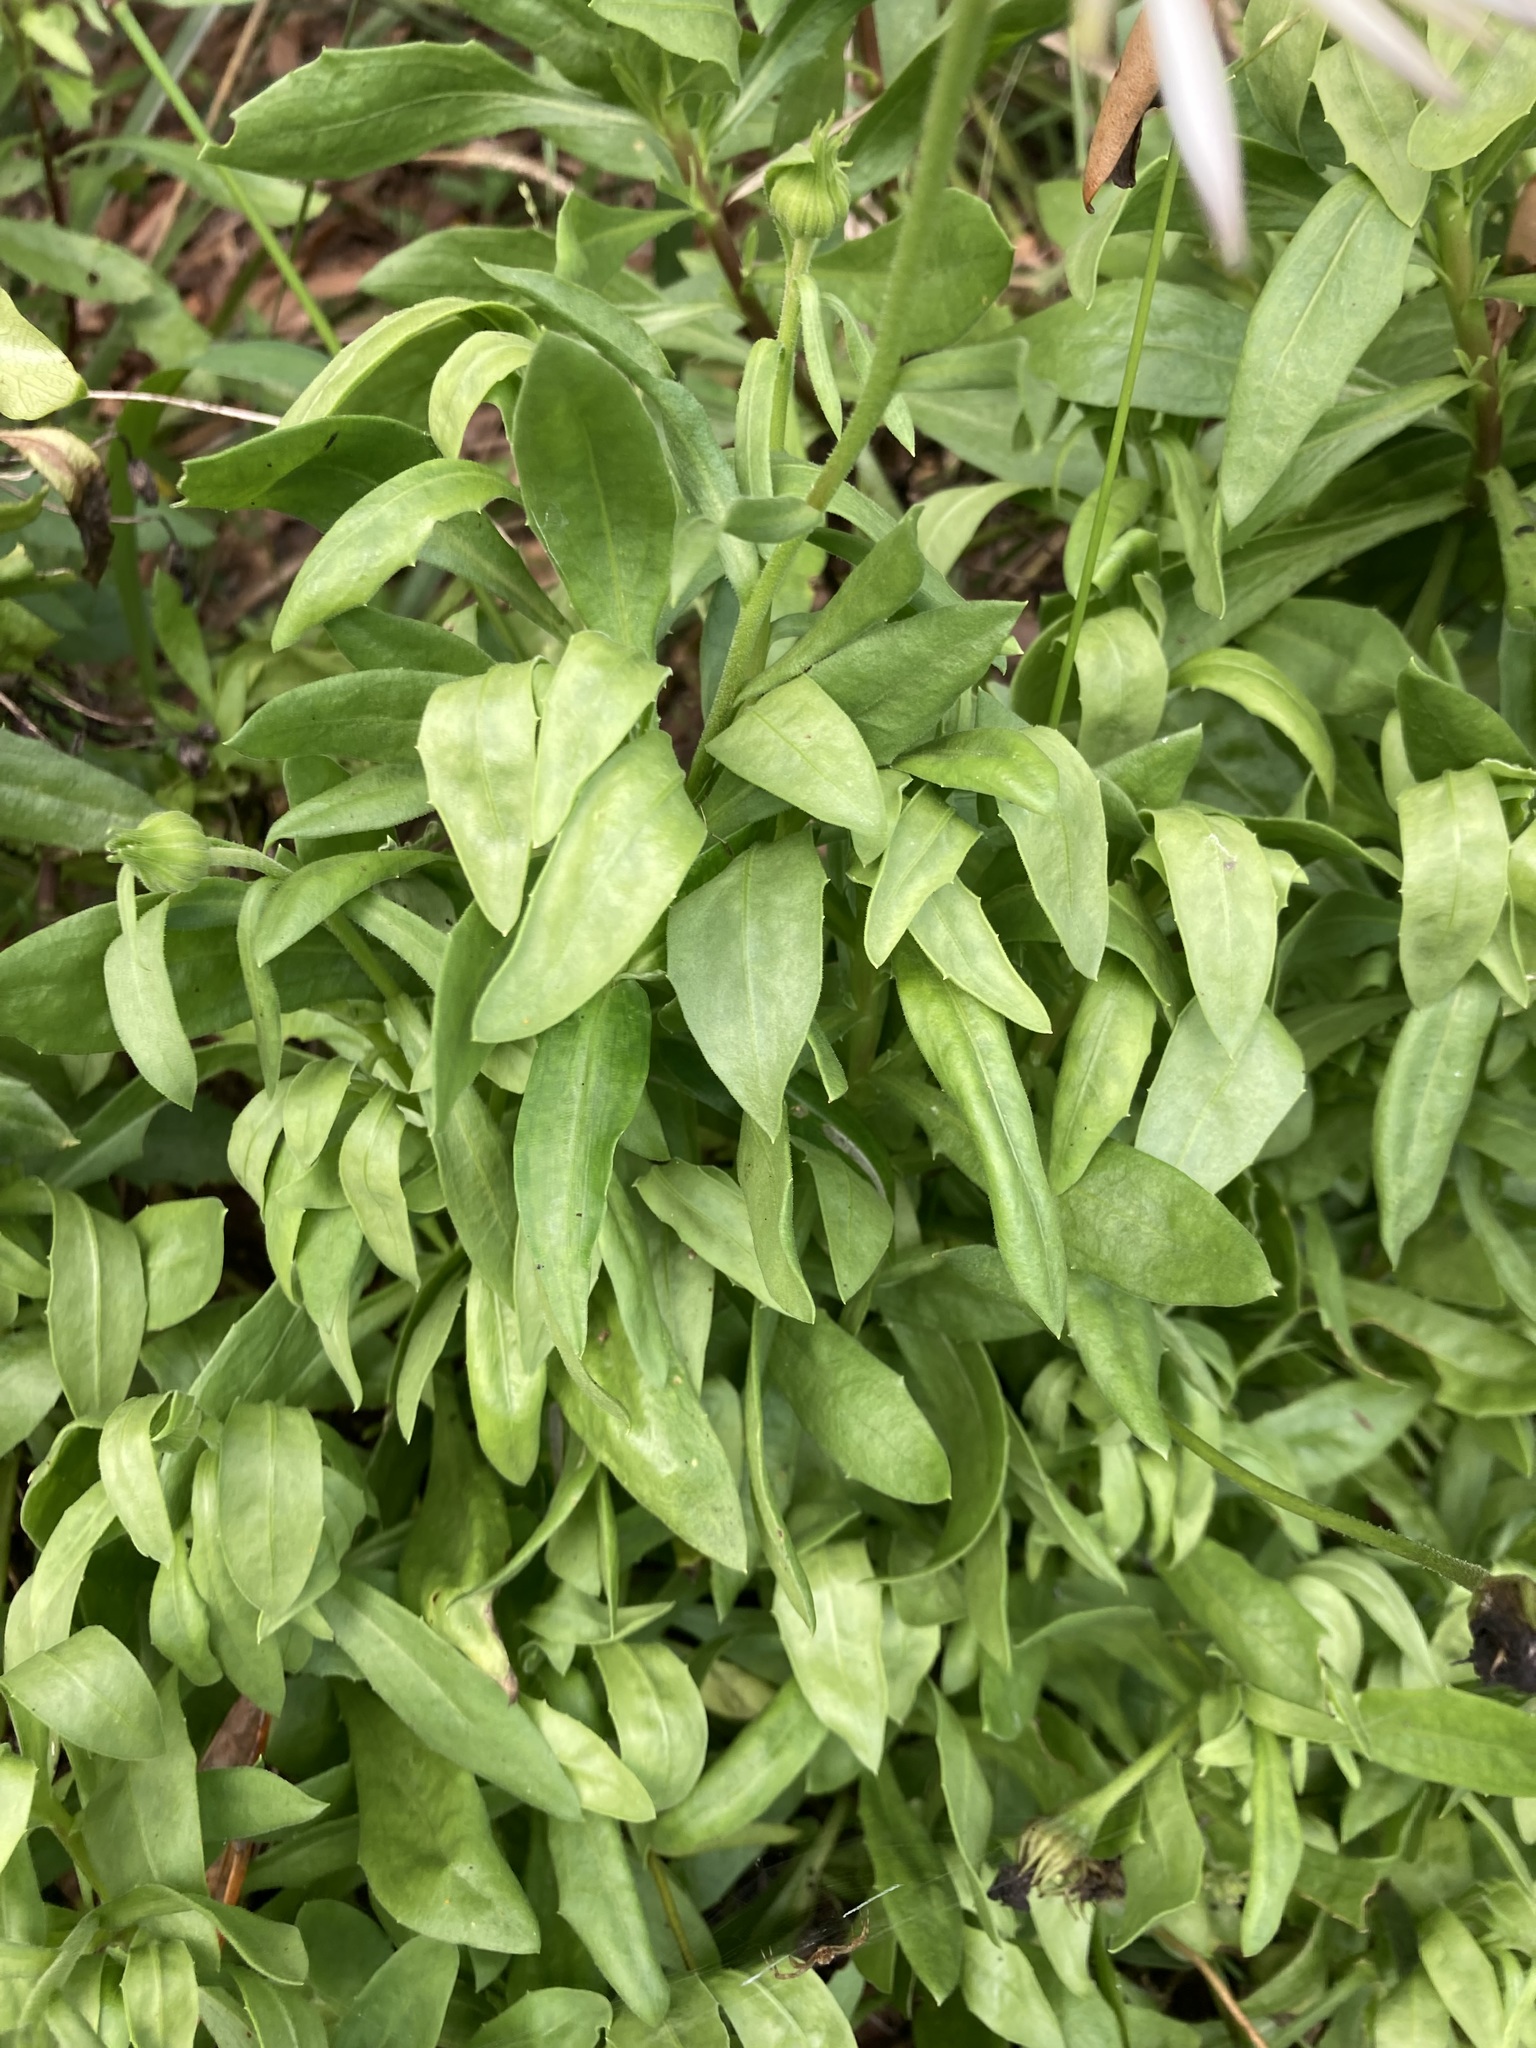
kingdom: Plantae
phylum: Tracheophyta
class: Magnoliopsida
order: Asterales
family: Asteraceae
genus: Dimorphotheca
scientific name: Dimorphotheca ecklonis
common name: Vanstaden's river daisy
